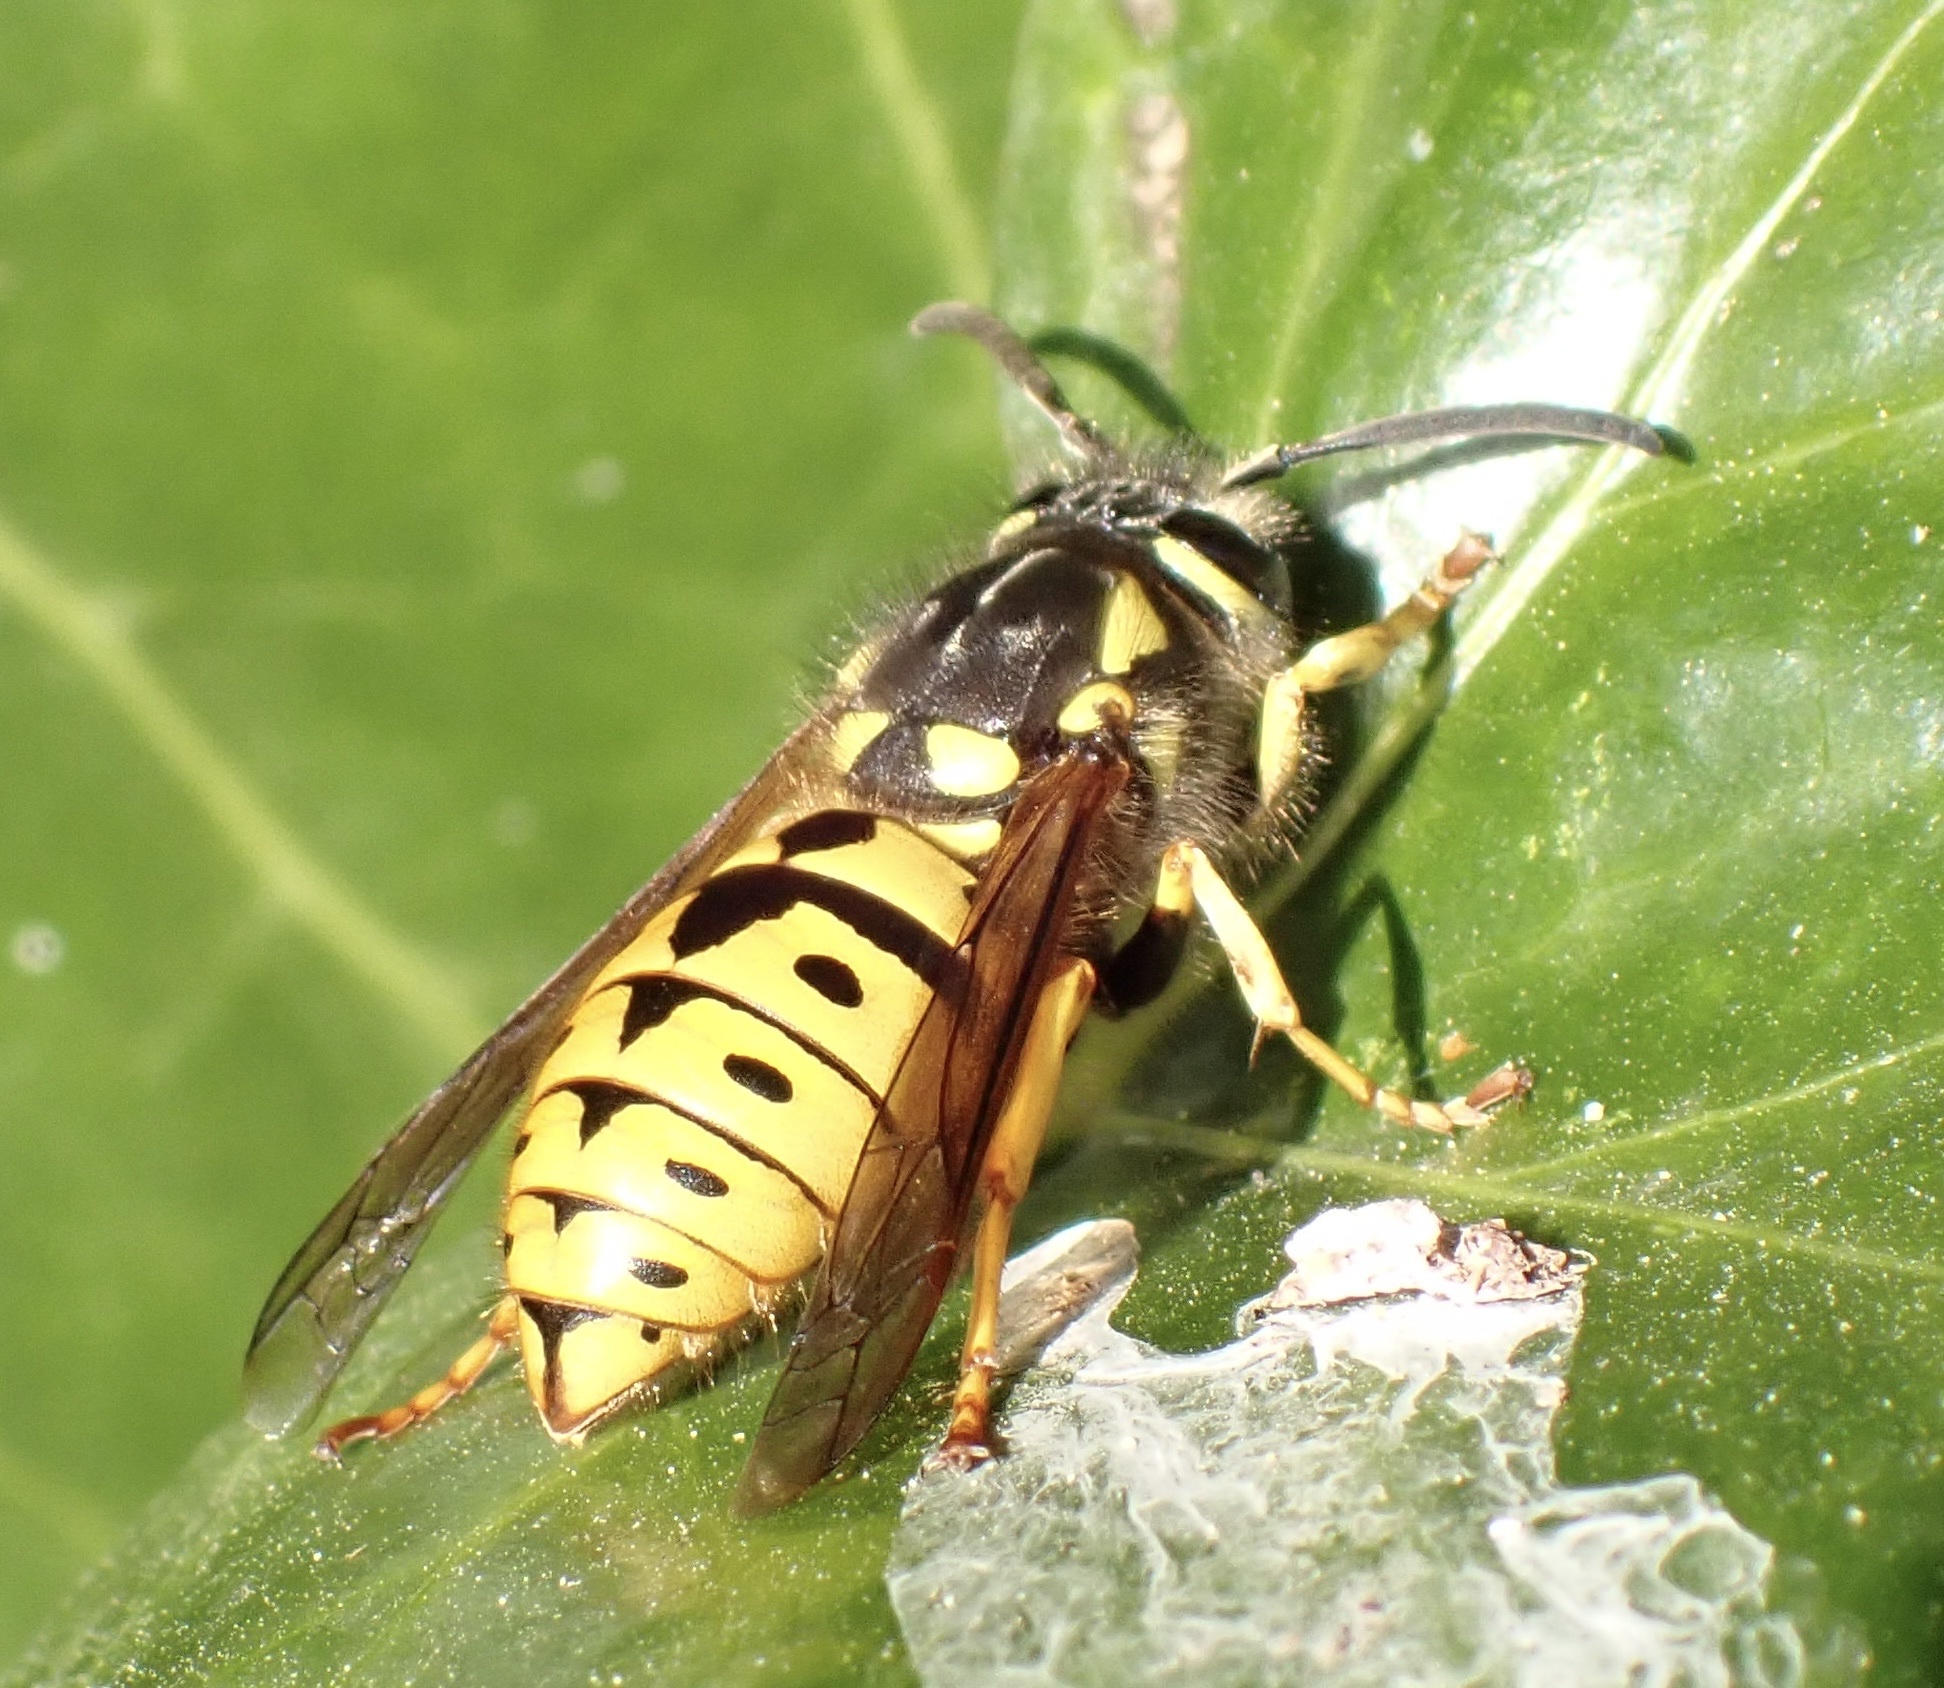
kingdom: Animalia
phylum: Arthropoda
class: Insecta
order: Hymenoptera
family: Vespidae
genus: Vespula
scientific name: Vespula germanica
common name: German wasp
